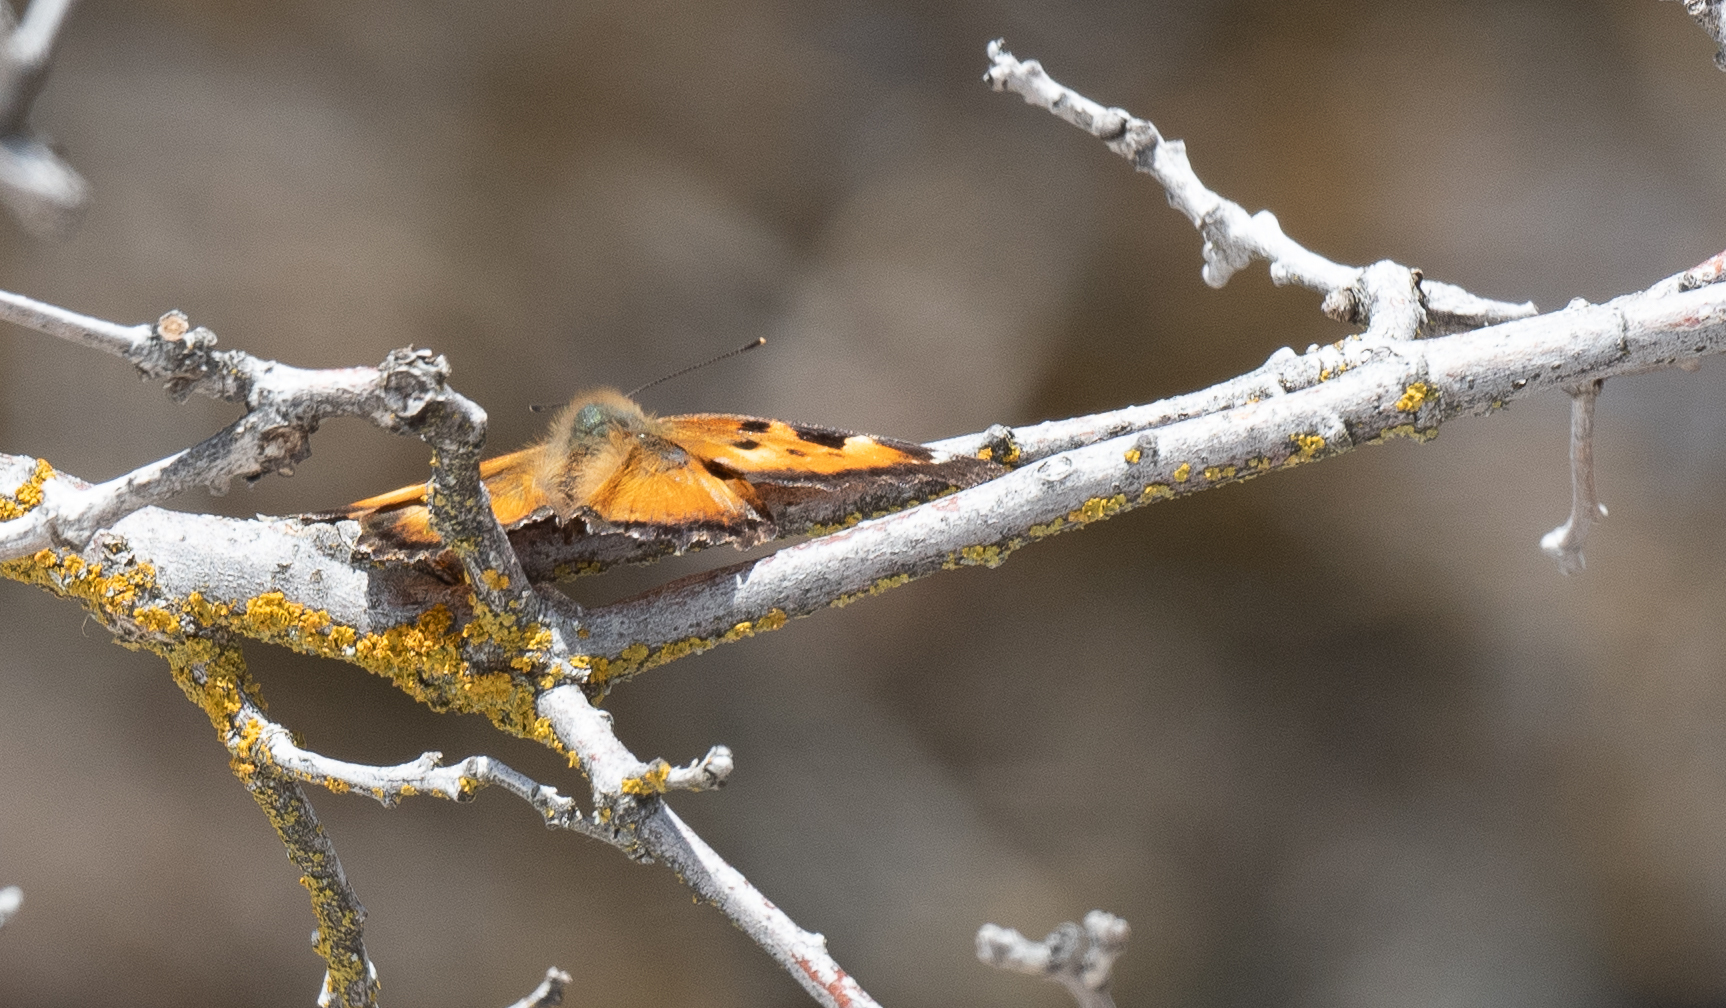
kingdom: Animalia
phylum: Arthropoda
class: Insecta
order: Lepidoptera
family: Nymphalidae
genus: Nymphalis
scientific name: Nymphalis californica
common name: California tortoiseshell
